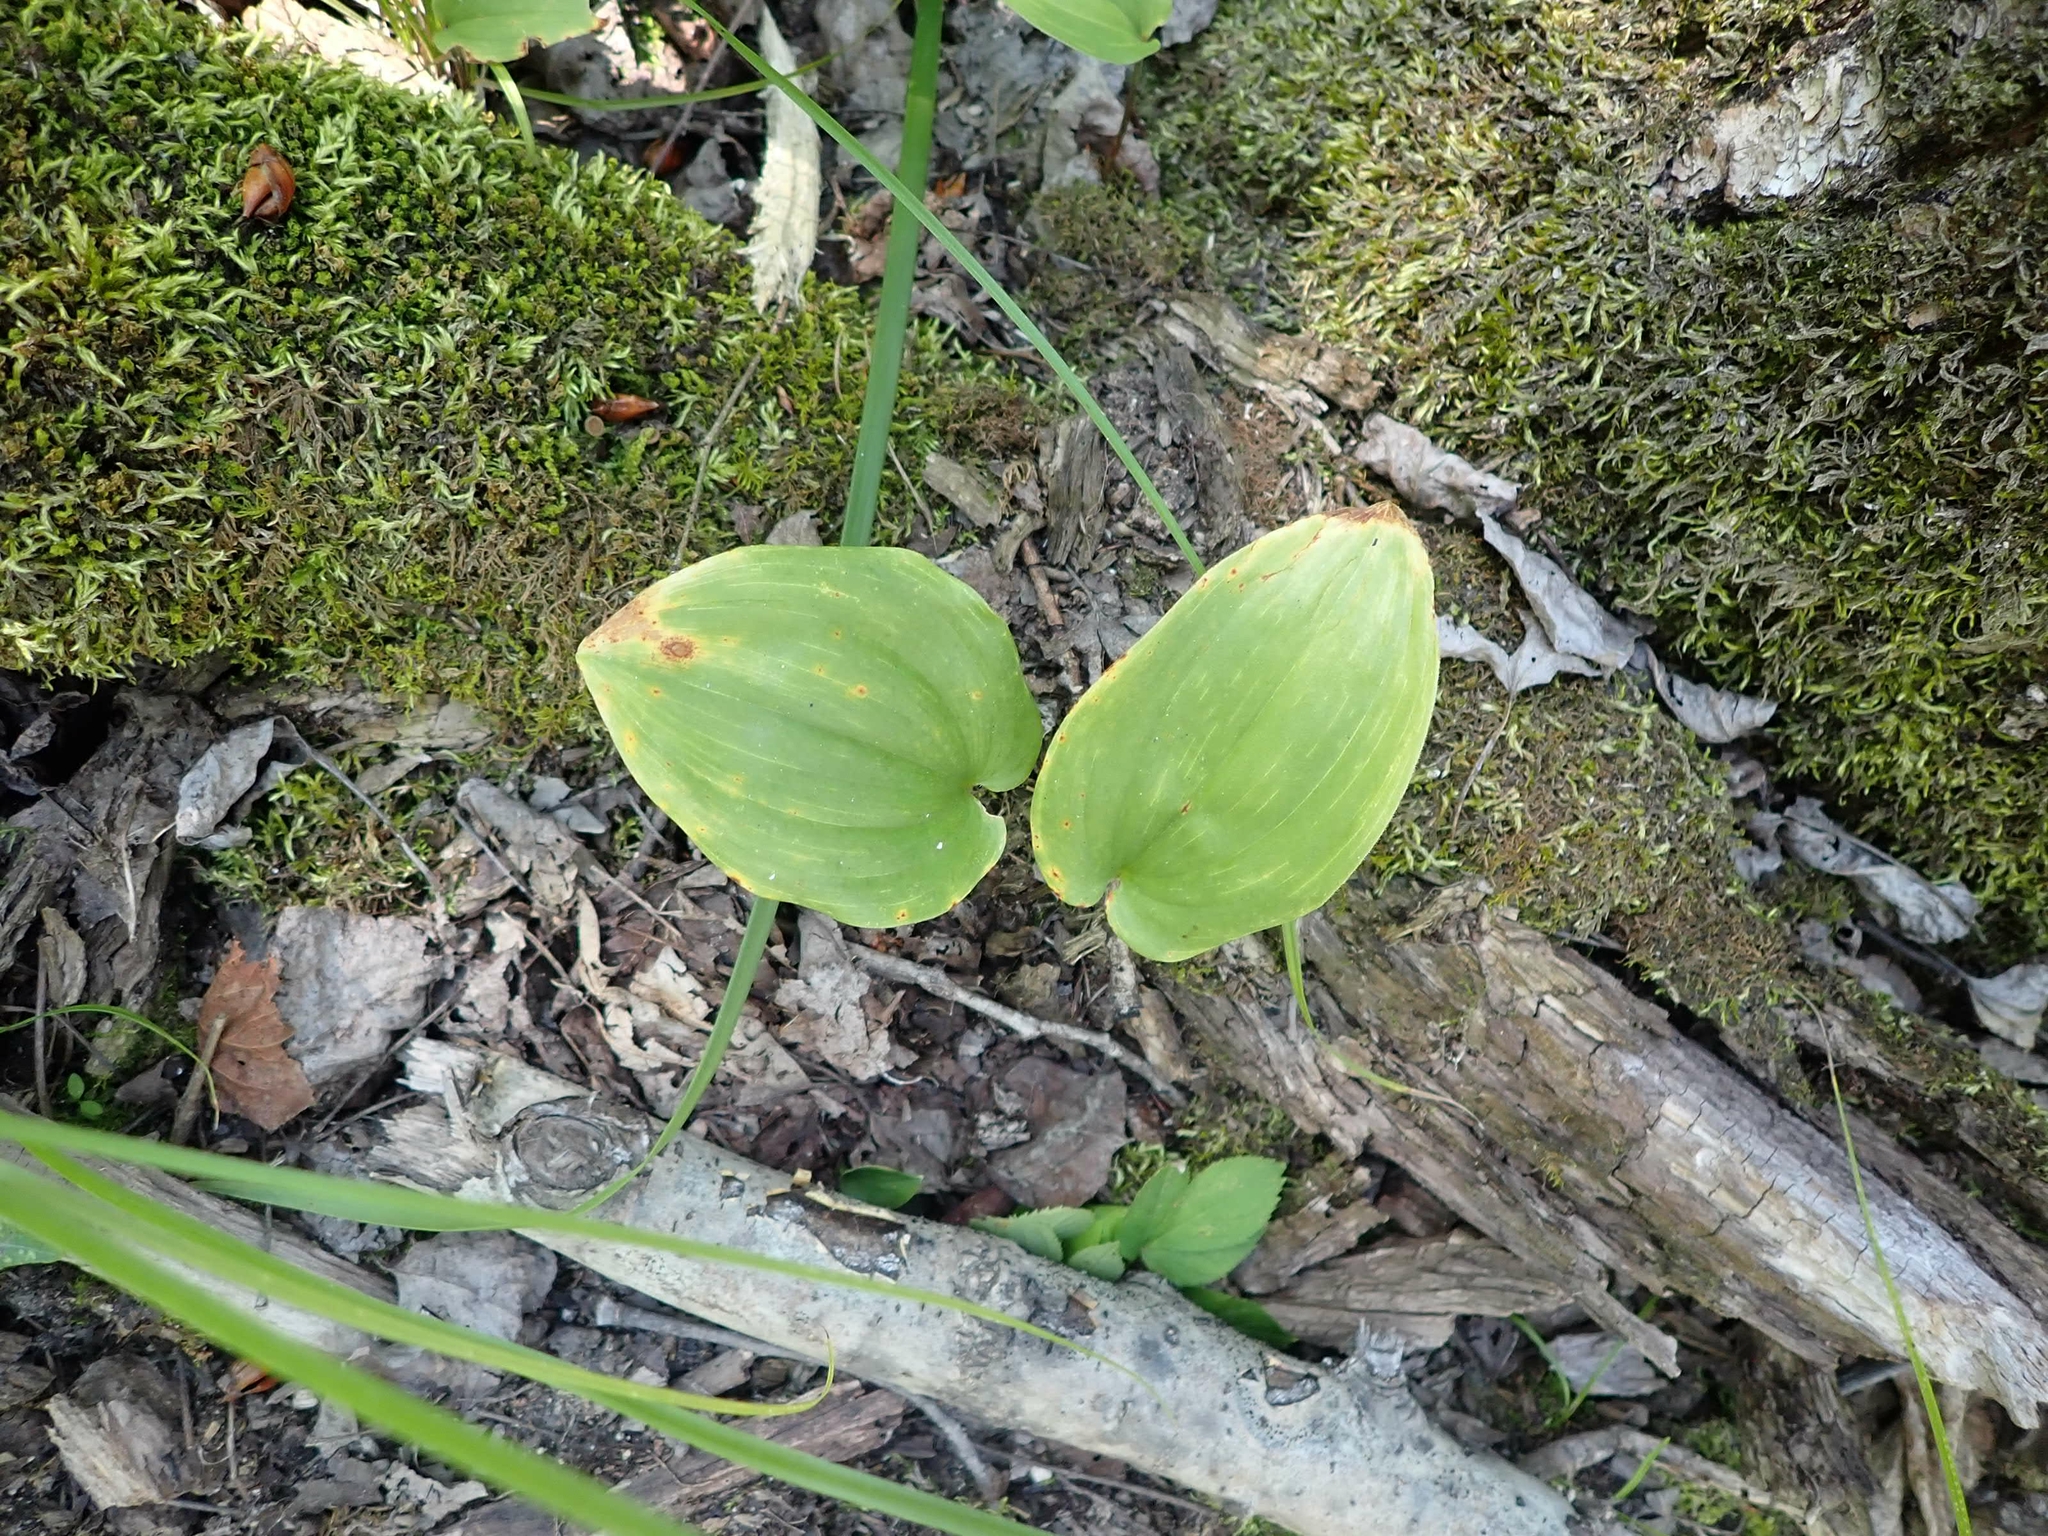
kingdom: Plantae
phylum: Tracheophyta
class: Liliopsida
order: Asparagales
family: Asparagaceae
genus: Maianthemum
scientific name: Maianthemum canadense
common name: False lily-of-the-valley
